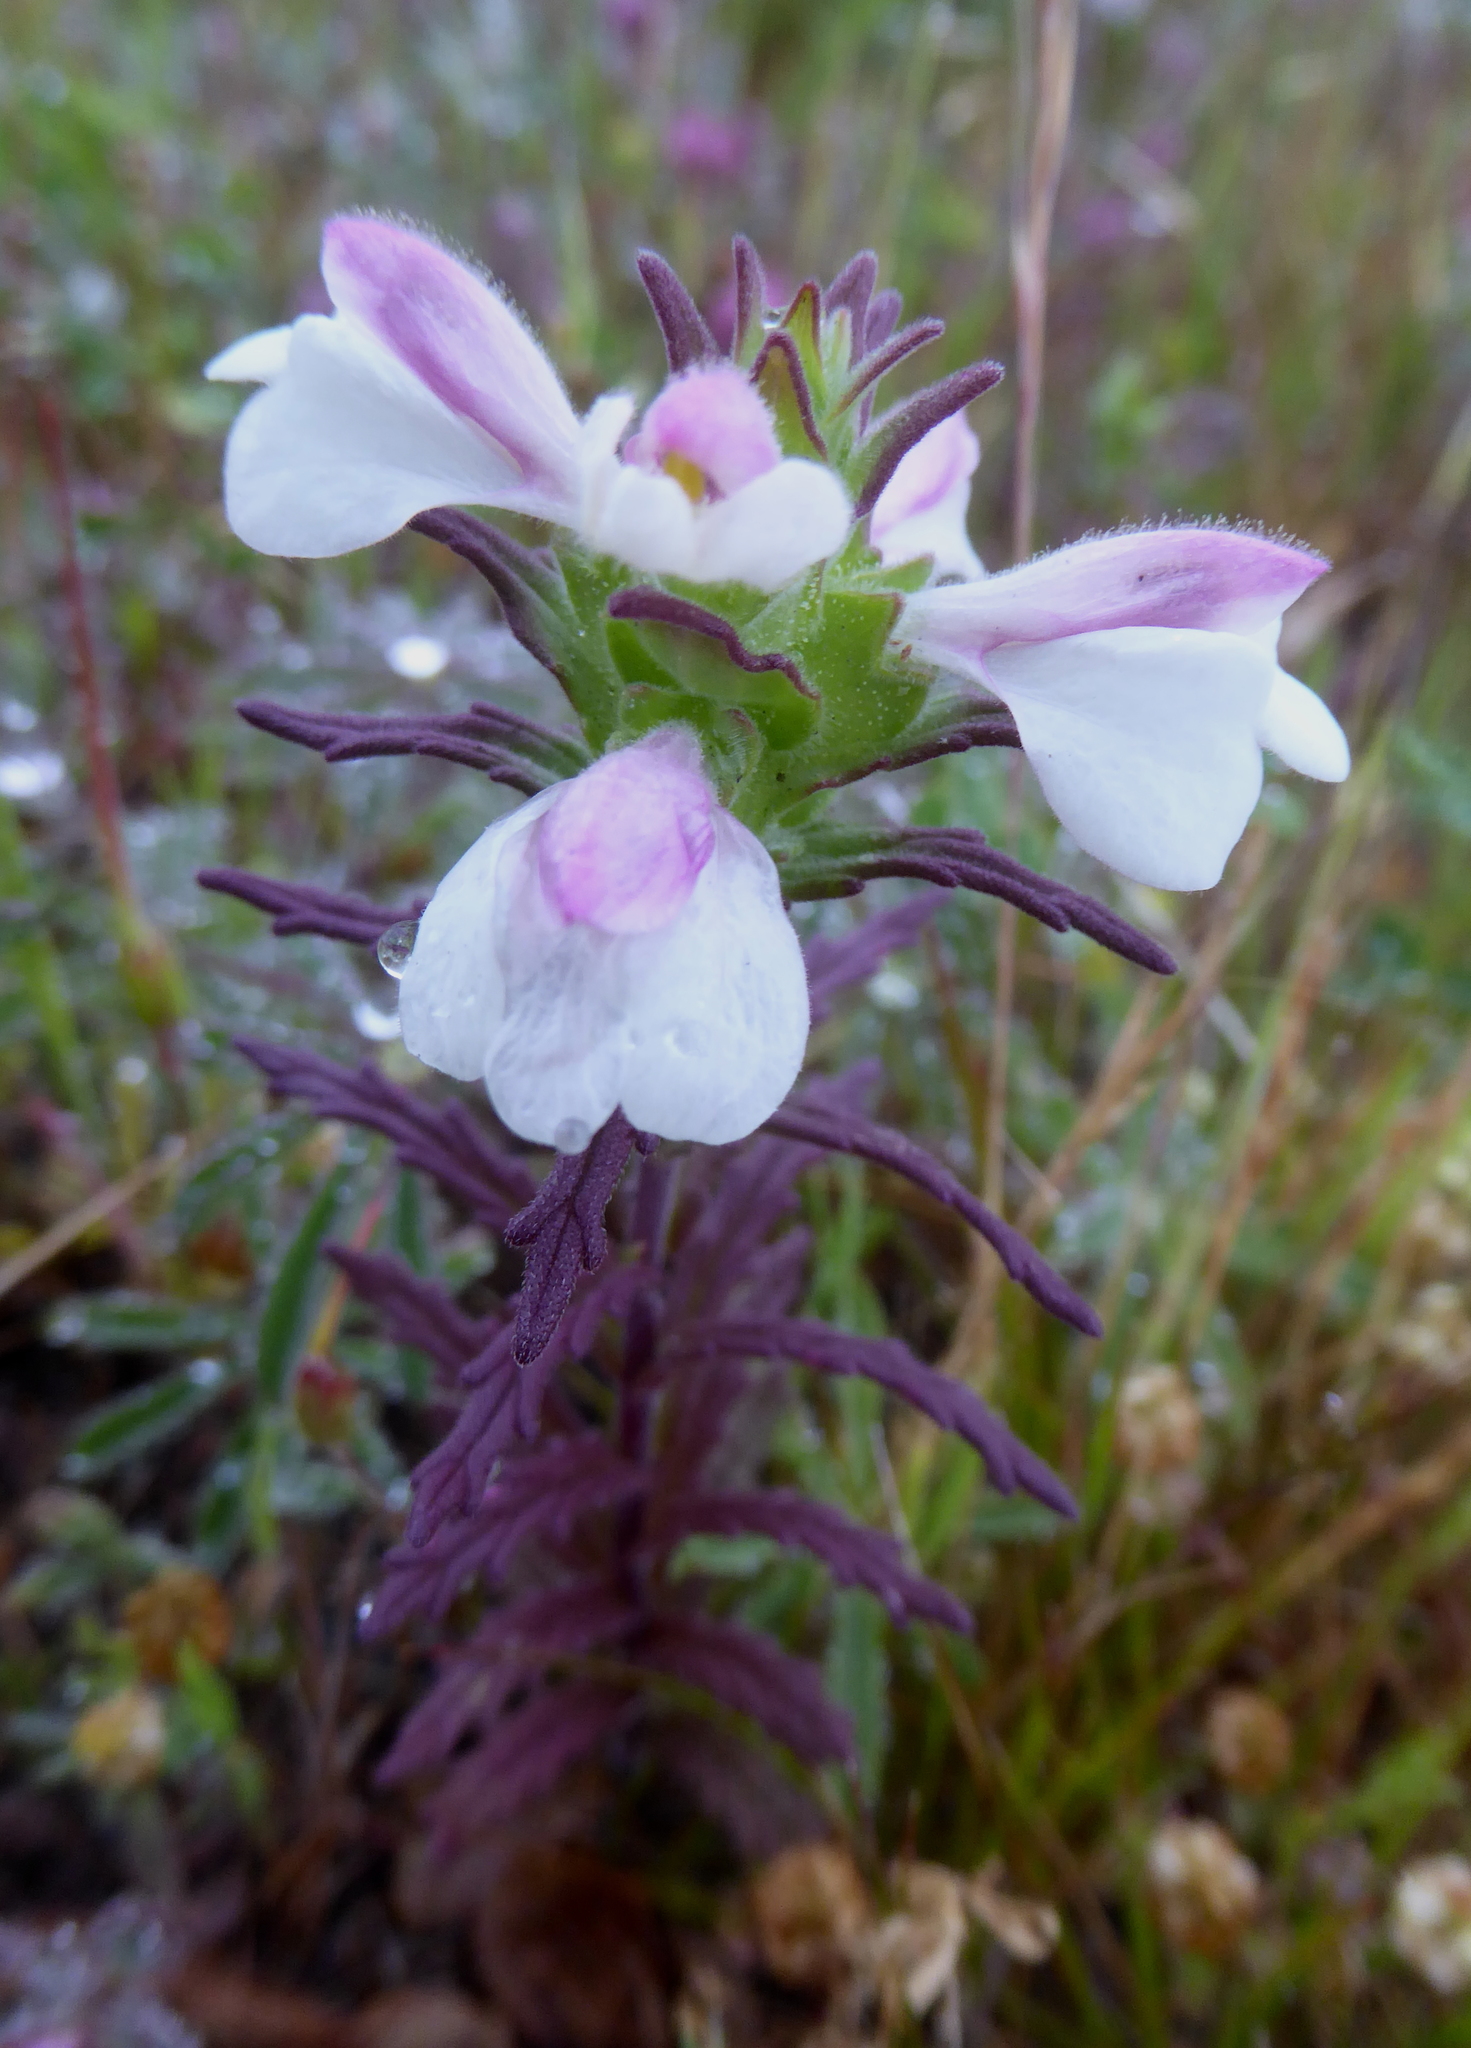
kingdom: Plantae
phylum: Tracheophyta
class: Magnoliopsida
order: Lamiales
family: Orobanchaceae
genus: Bellardia
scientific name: Bellardia trixago
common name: Mediterranean lineseed
